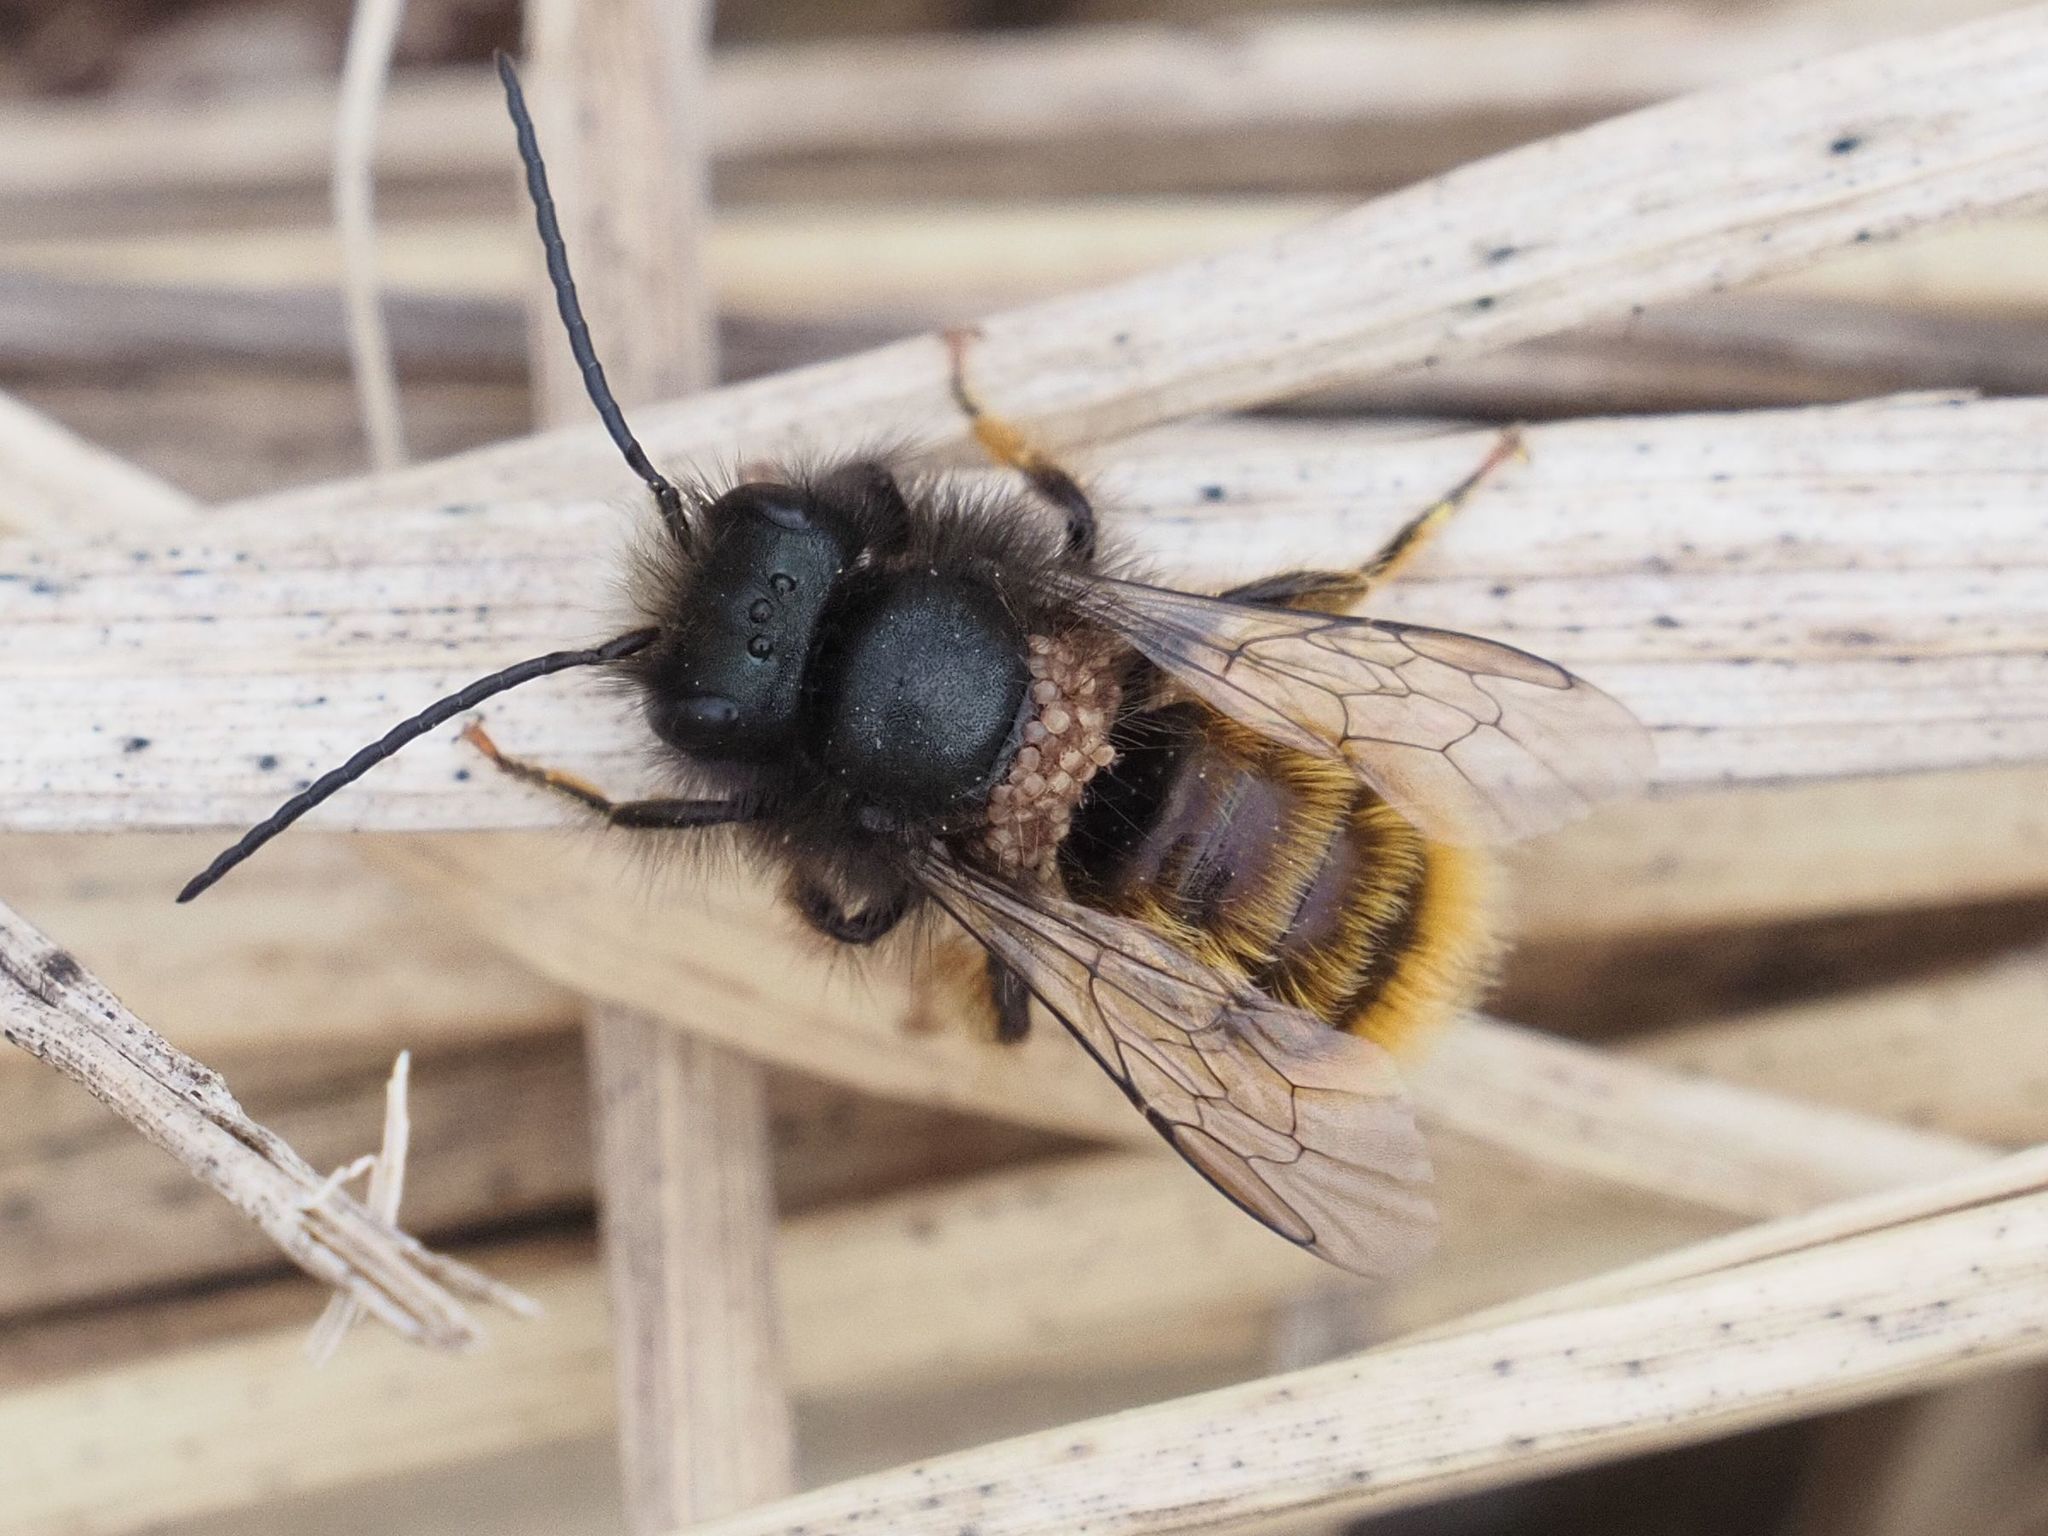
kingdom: Animalia
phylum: Arthropoda
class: Insecta
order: Hymenoptera
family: Megachilidae
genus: Osmia
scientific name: Osmia cornuta
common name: Mason bee
